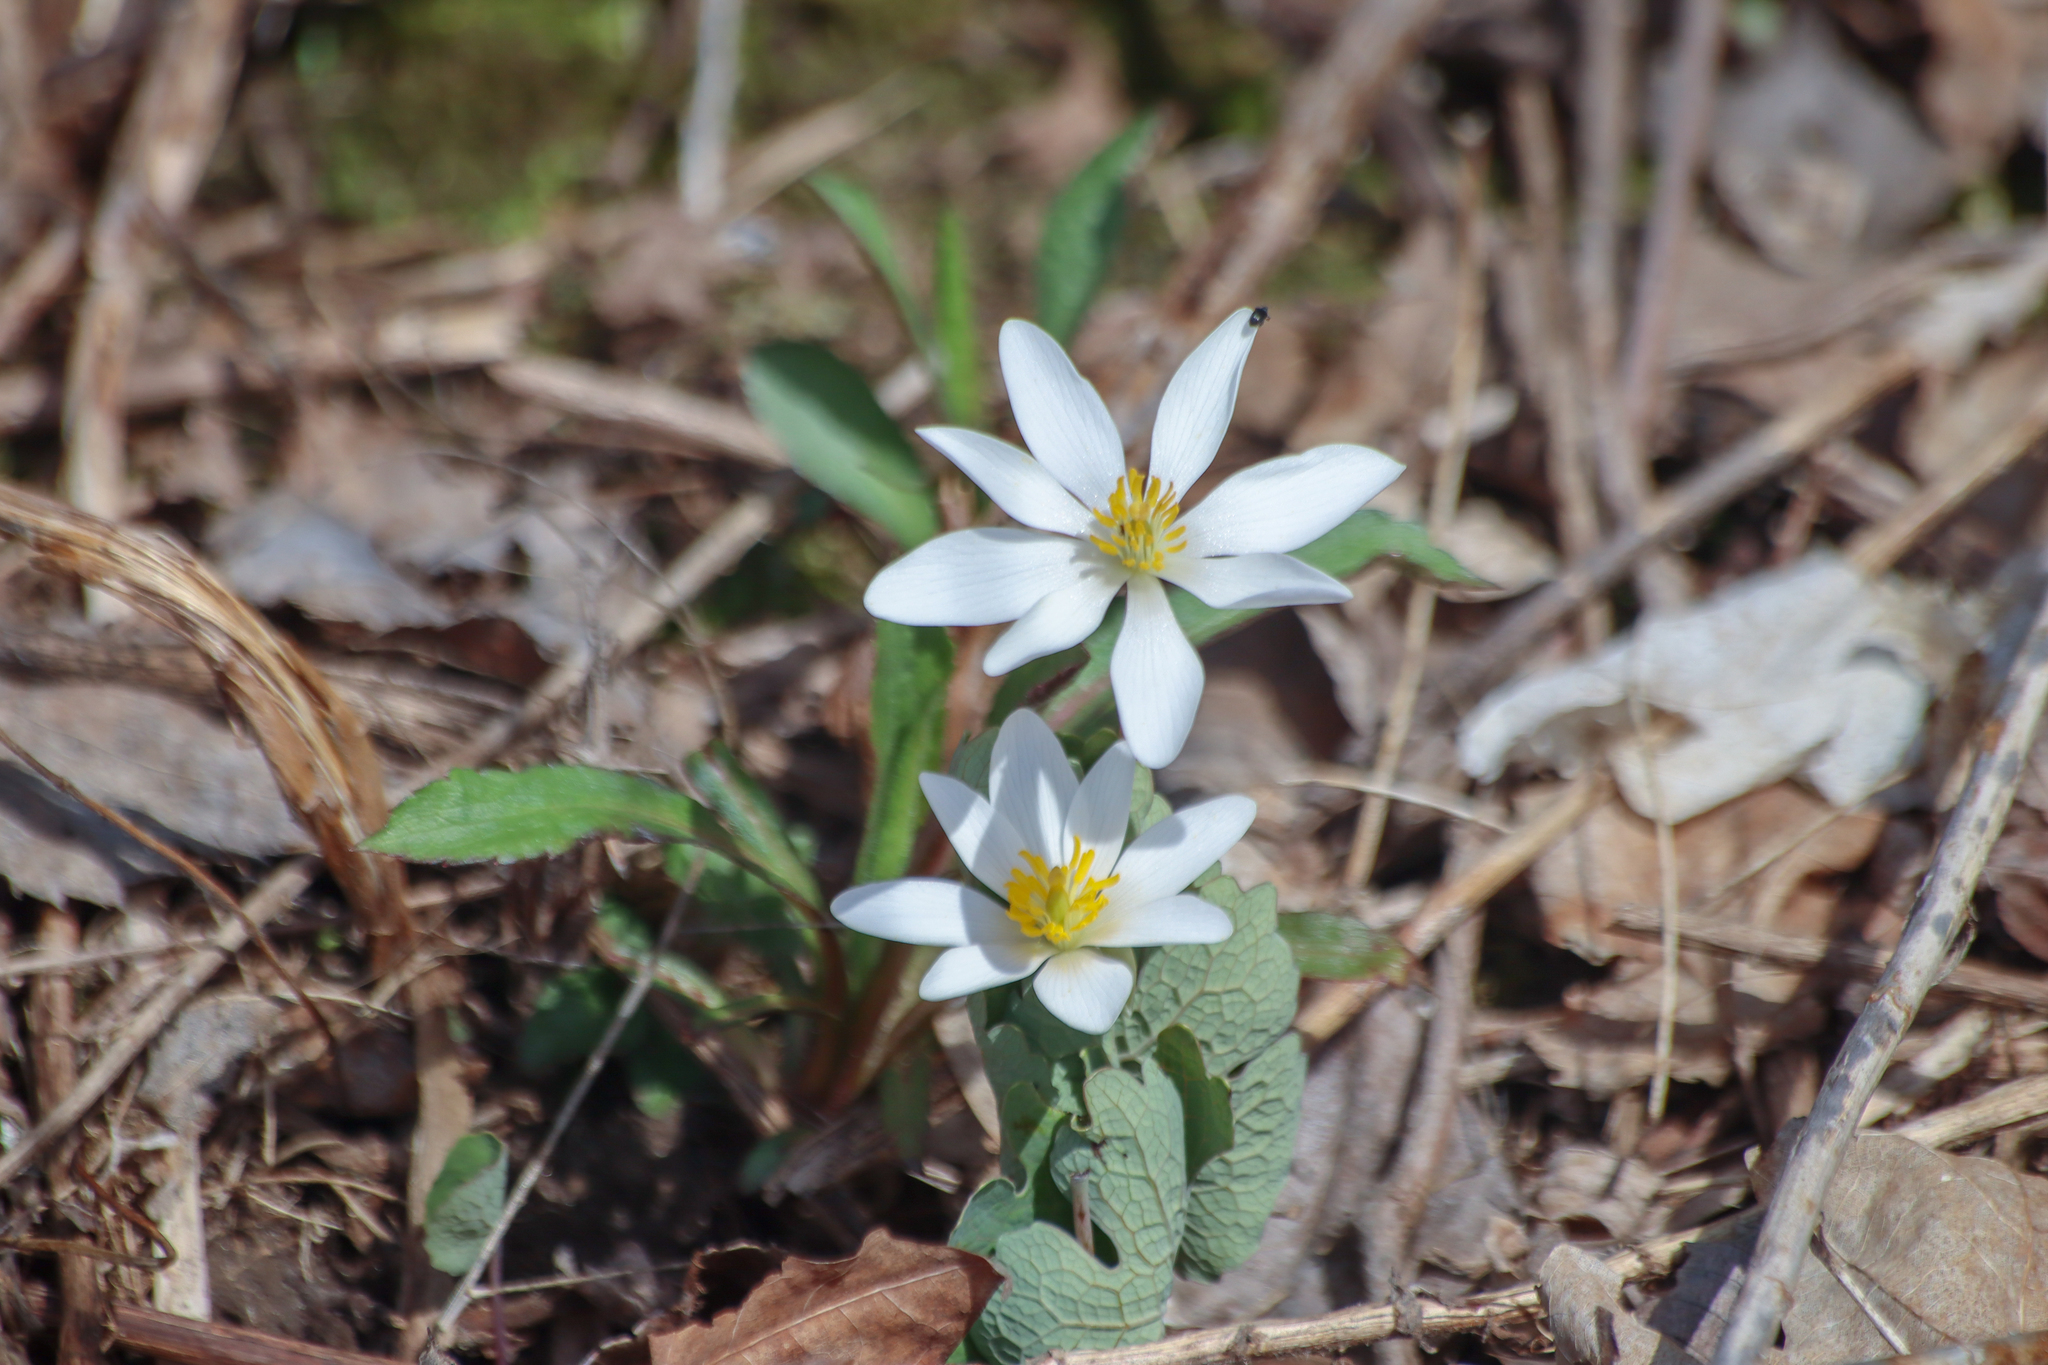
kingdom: Plantae
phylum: Tracheophyta
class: Magnoliopsida
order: Ranunculales
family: Papaveraceae
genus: Sanguinaria
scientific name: Sanguinaria canadensis
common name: Bloodroot
